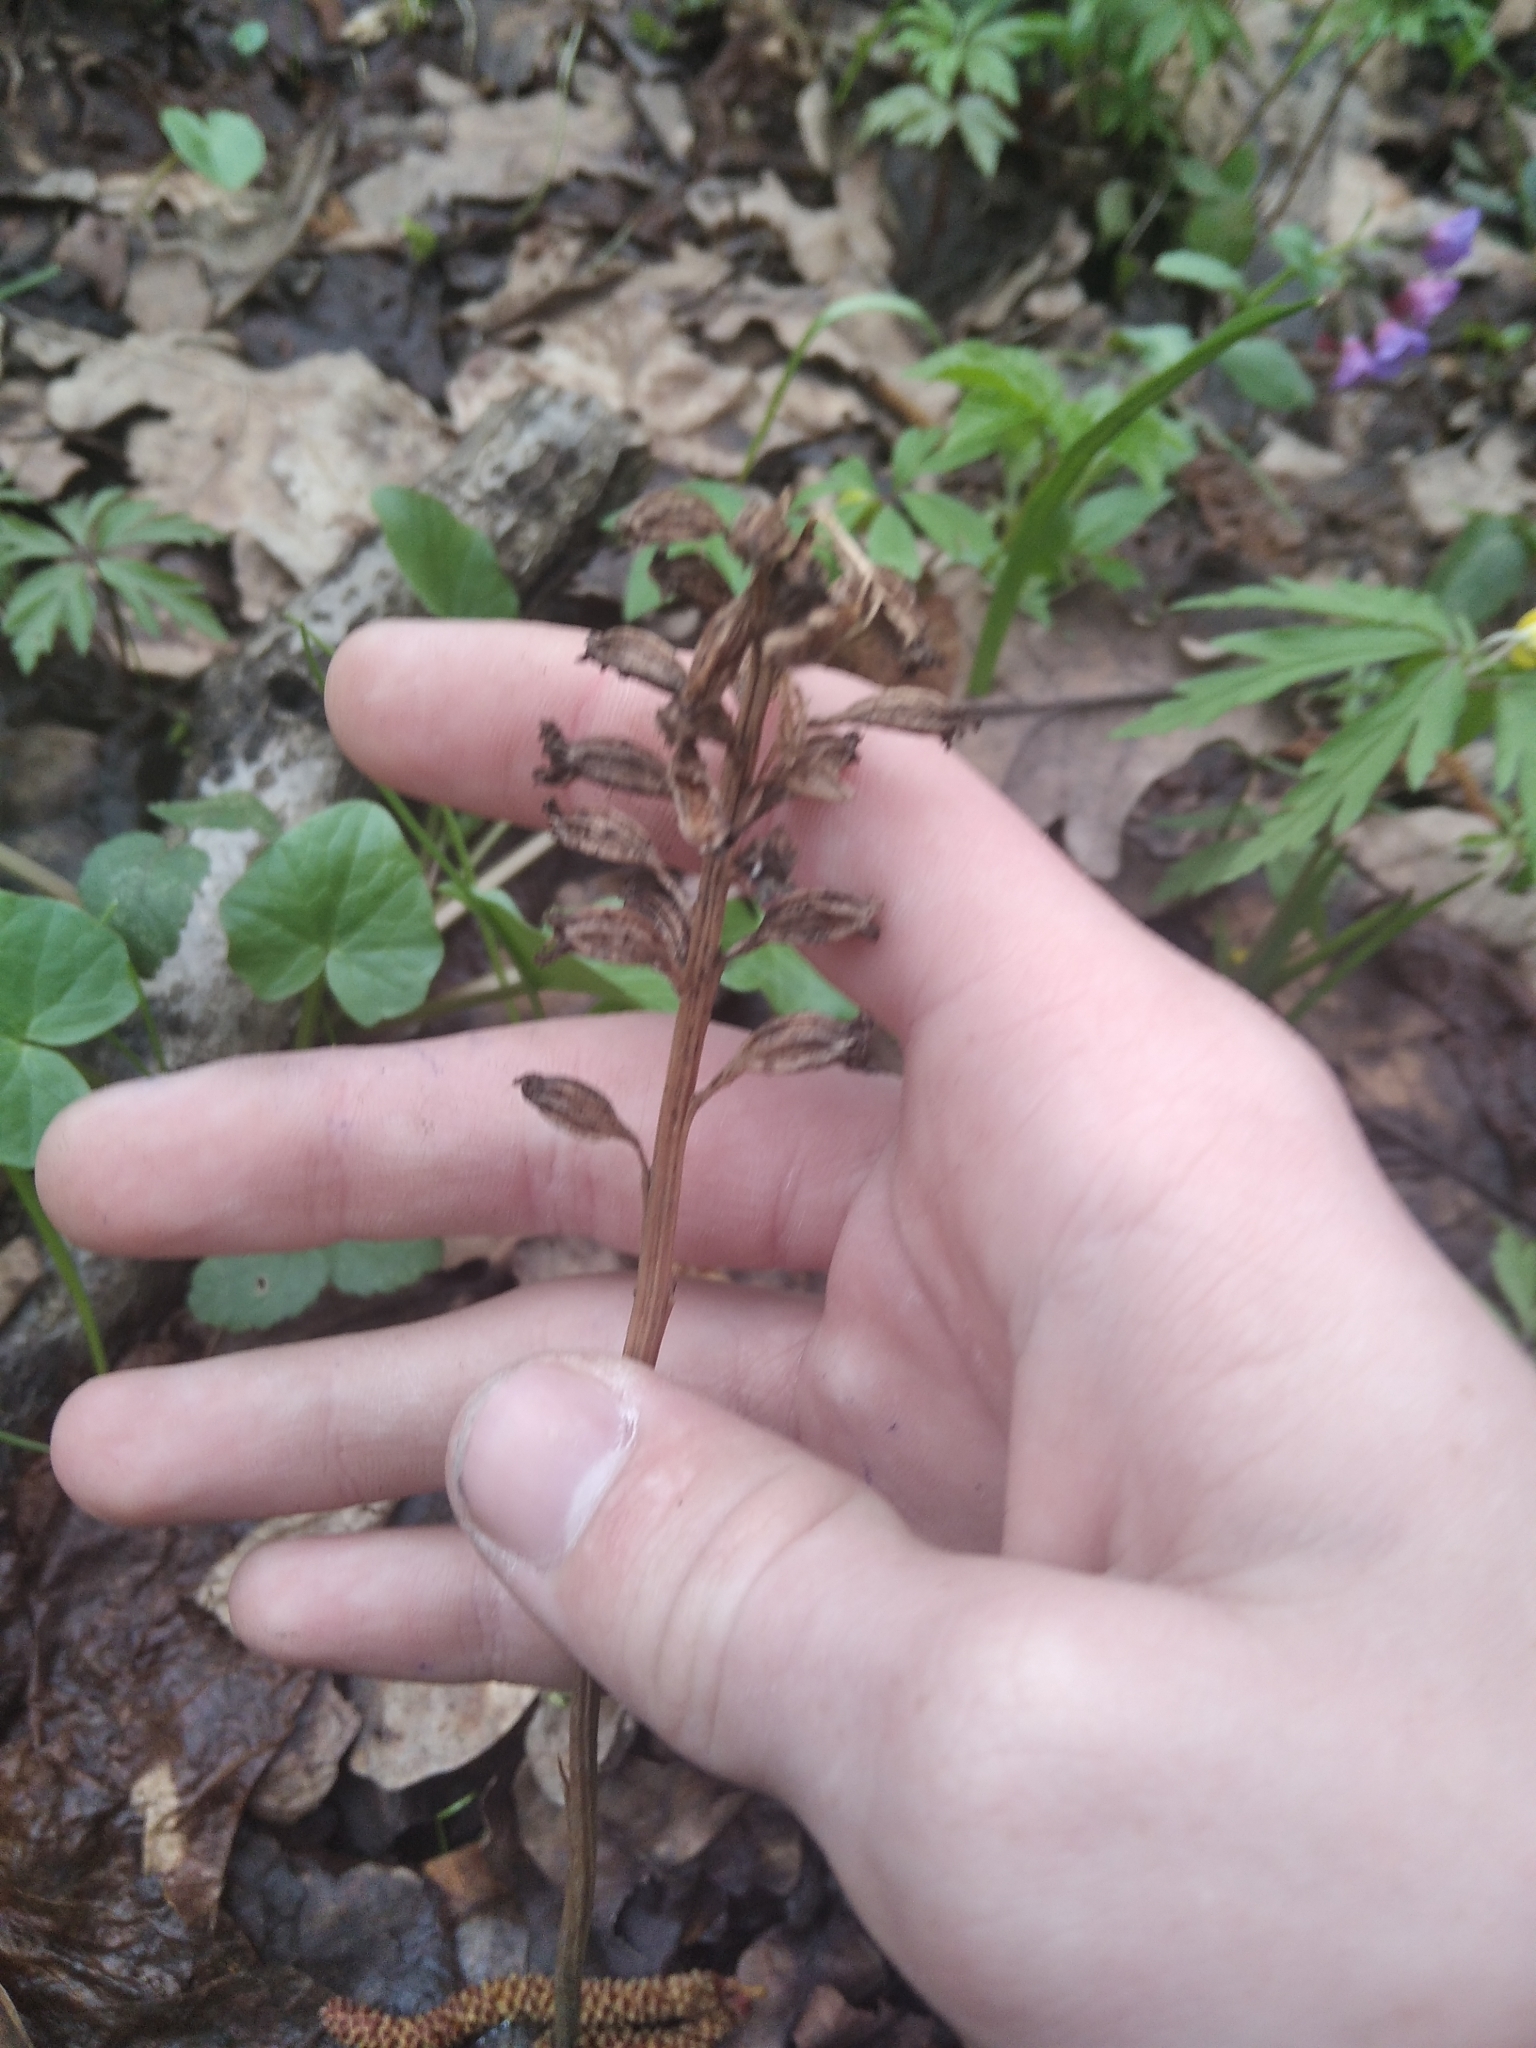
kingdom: Plantae
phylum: Tracheophyta
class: Liliopsida
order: Asparagales
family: Orchidaceae
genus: Neottia
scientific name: Neottia nidus-avis
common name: Bird's-nest orchid
